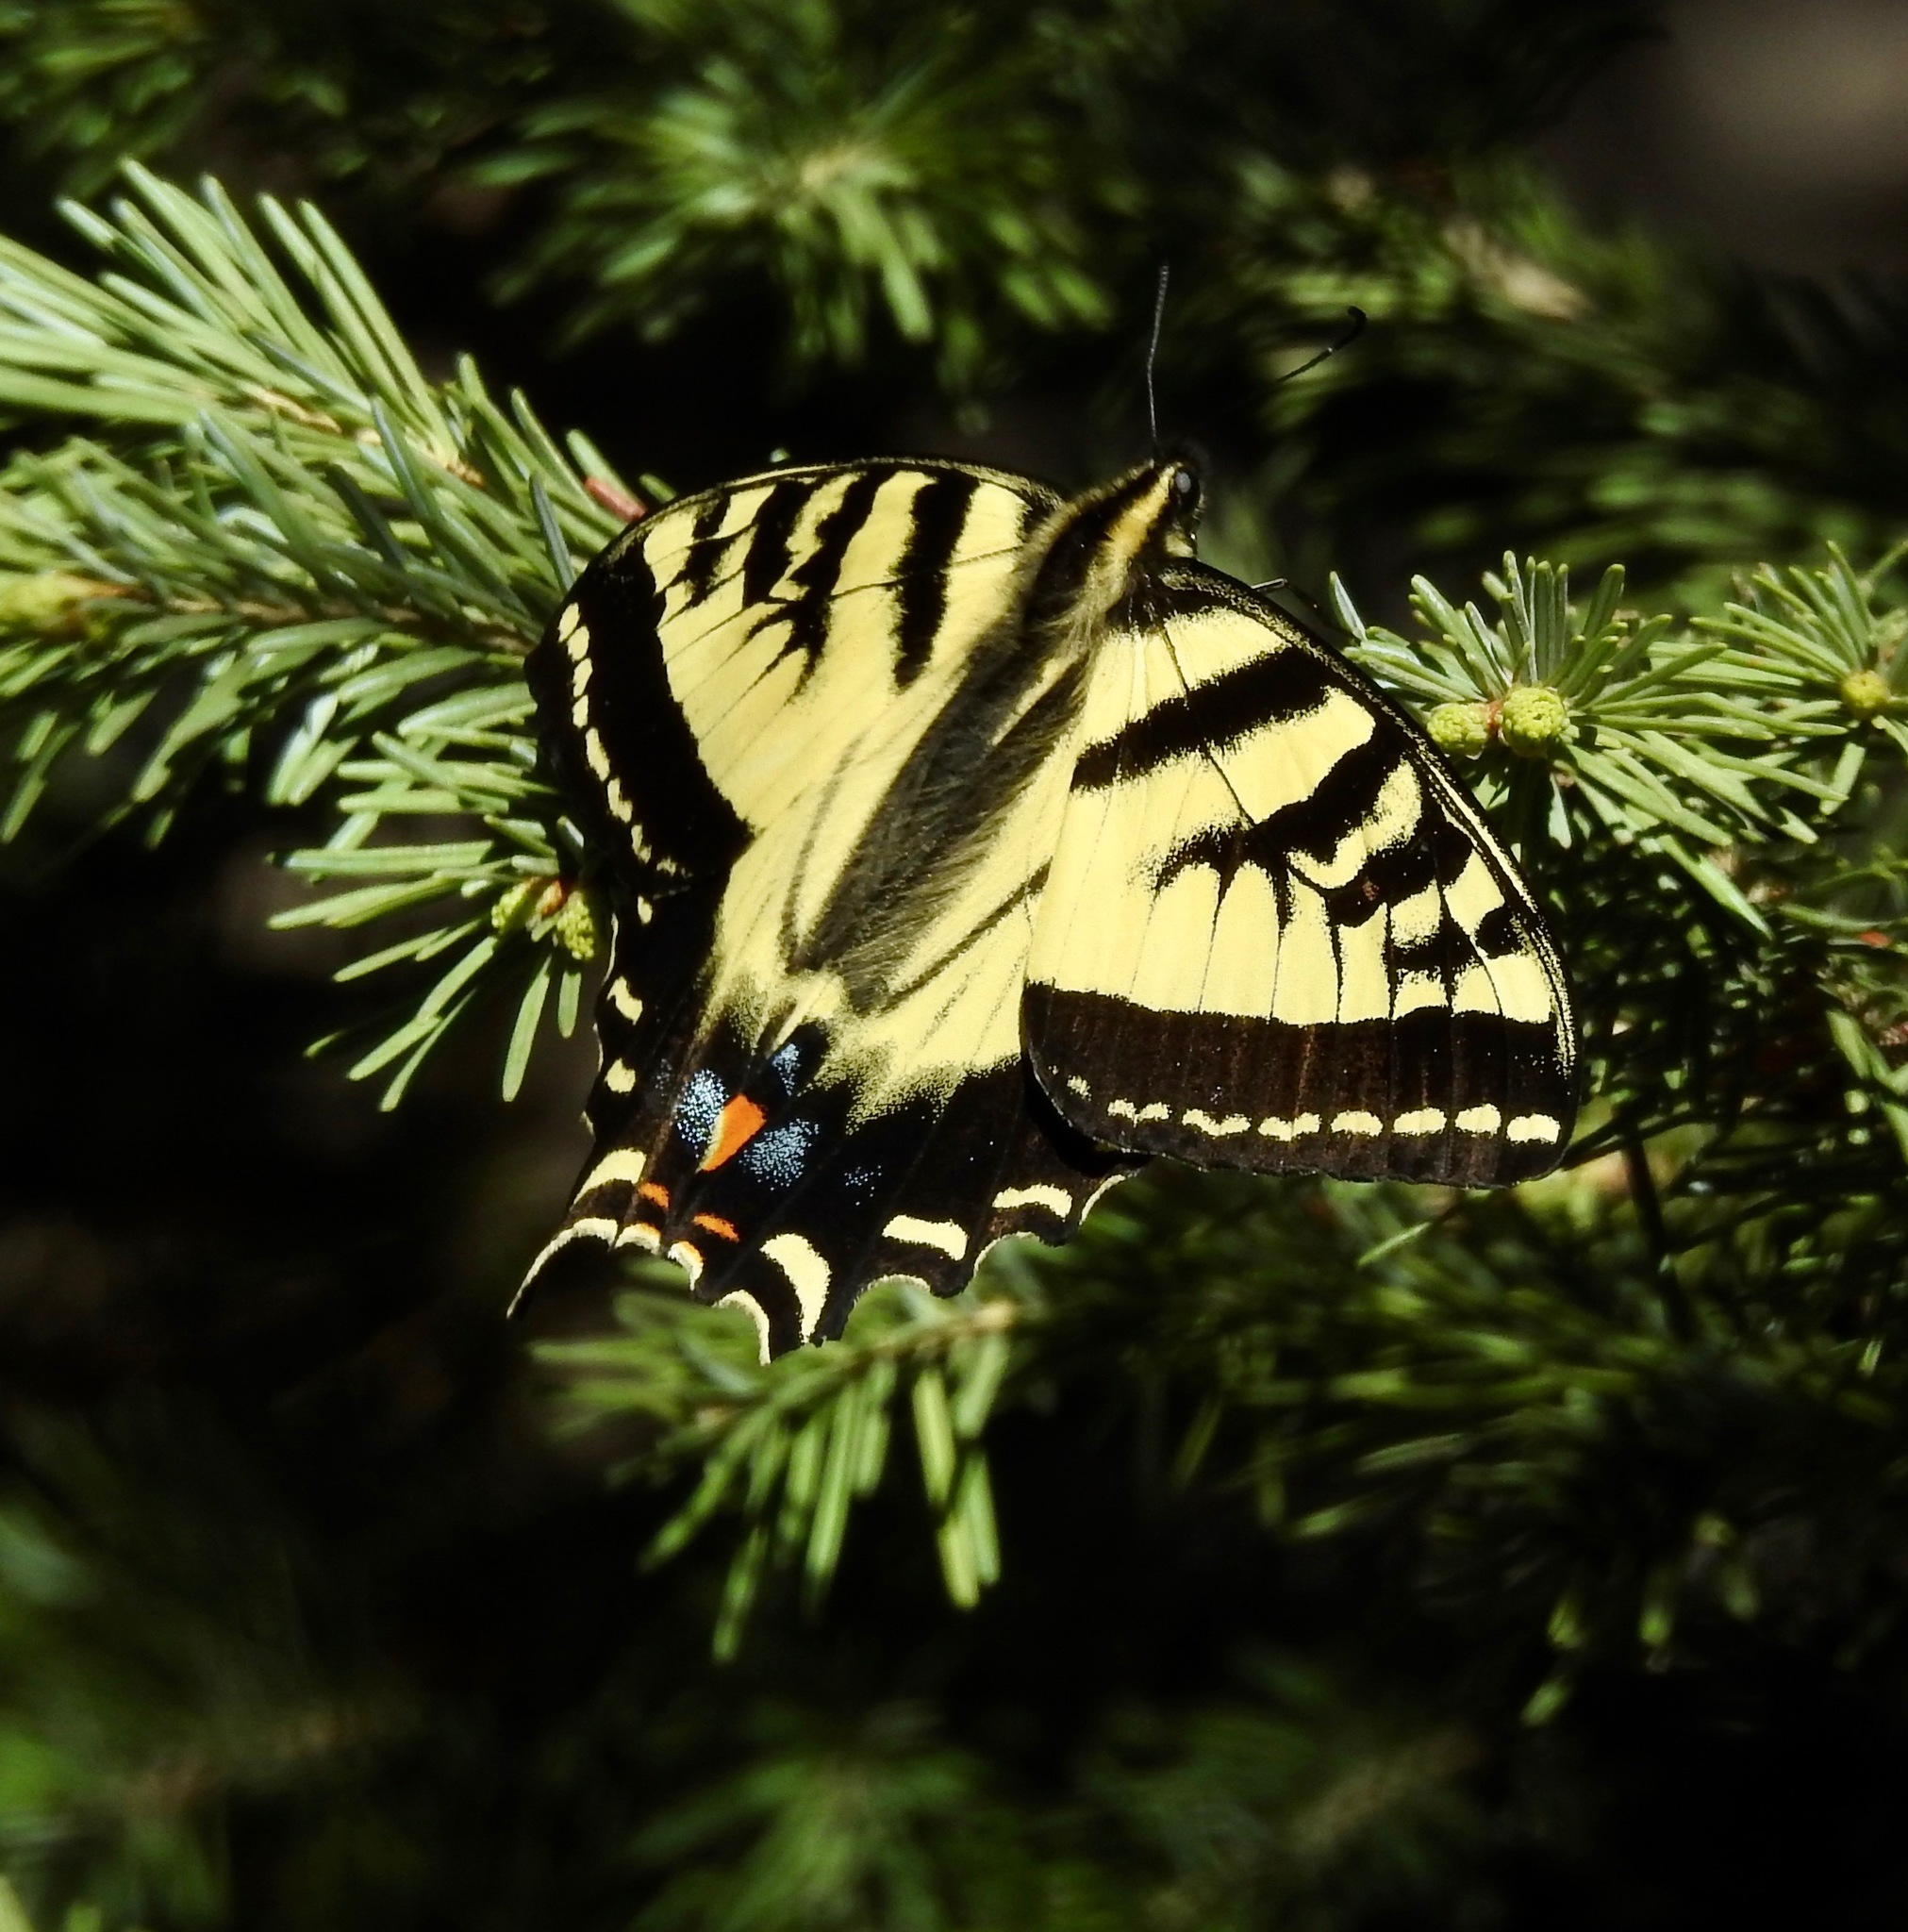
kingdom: Animalia
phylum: Arthropoda
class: Insecta
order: Lepidoptera
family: Papilionidae
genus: Papilio
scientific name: Papilio rutulus
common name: Western tiger swallowtail
